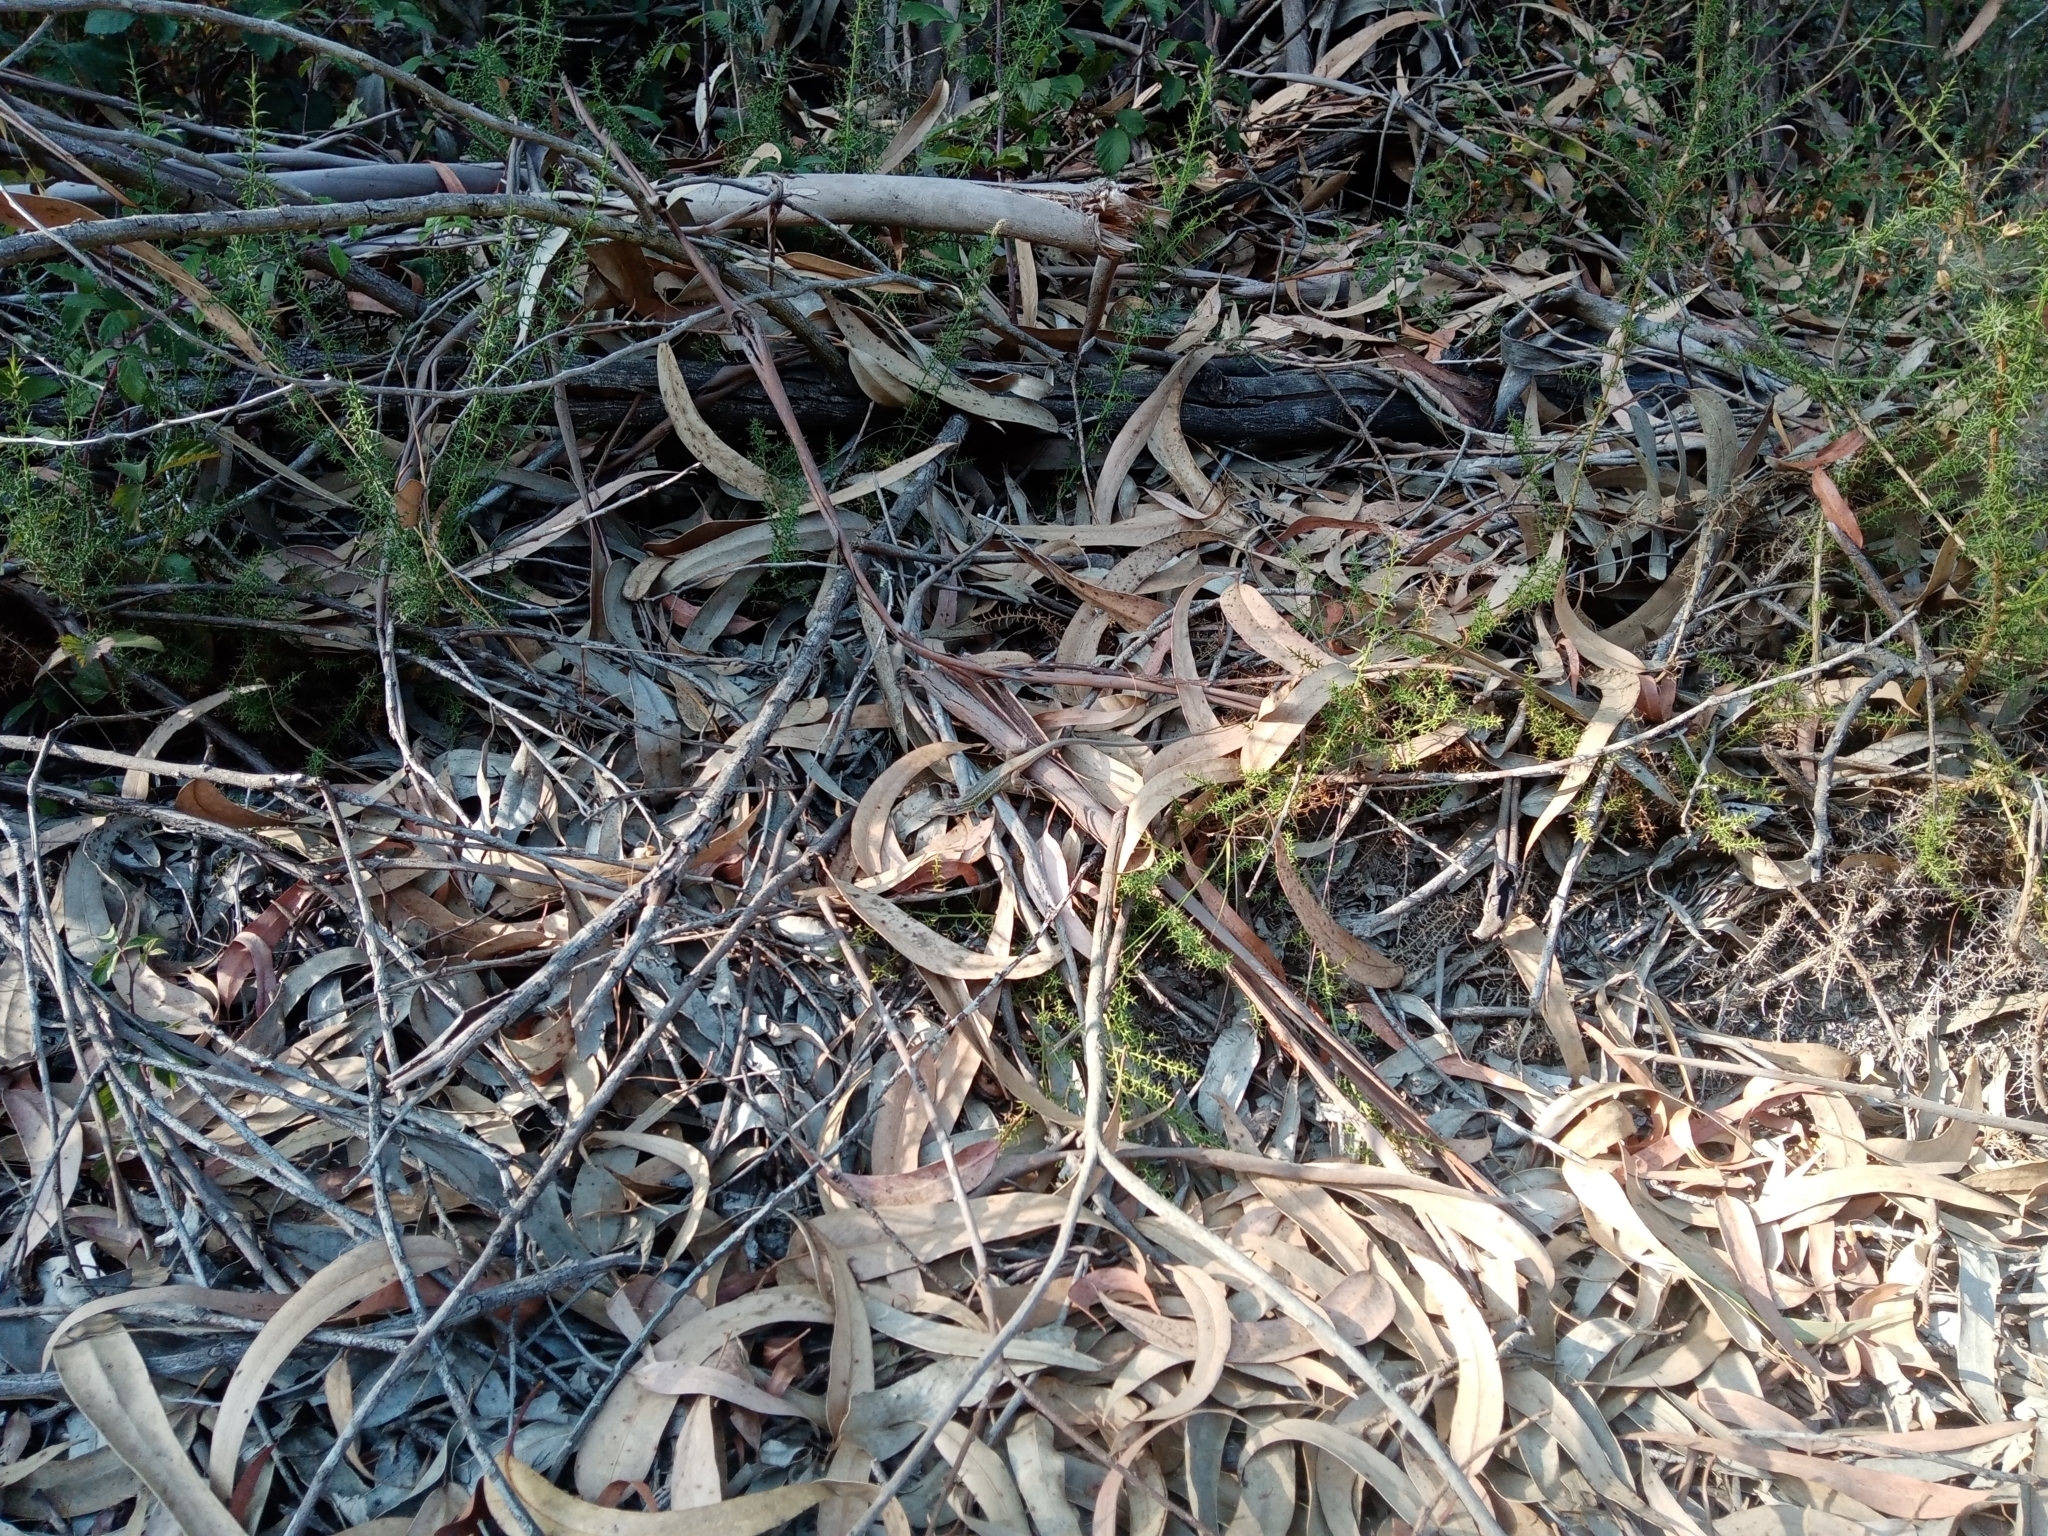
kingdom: Animalia
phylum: Chordata
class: Squamata
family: Lacertidae
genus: Psammodromus
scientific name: Psammodromus algirus
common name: Algerian psammodromus
